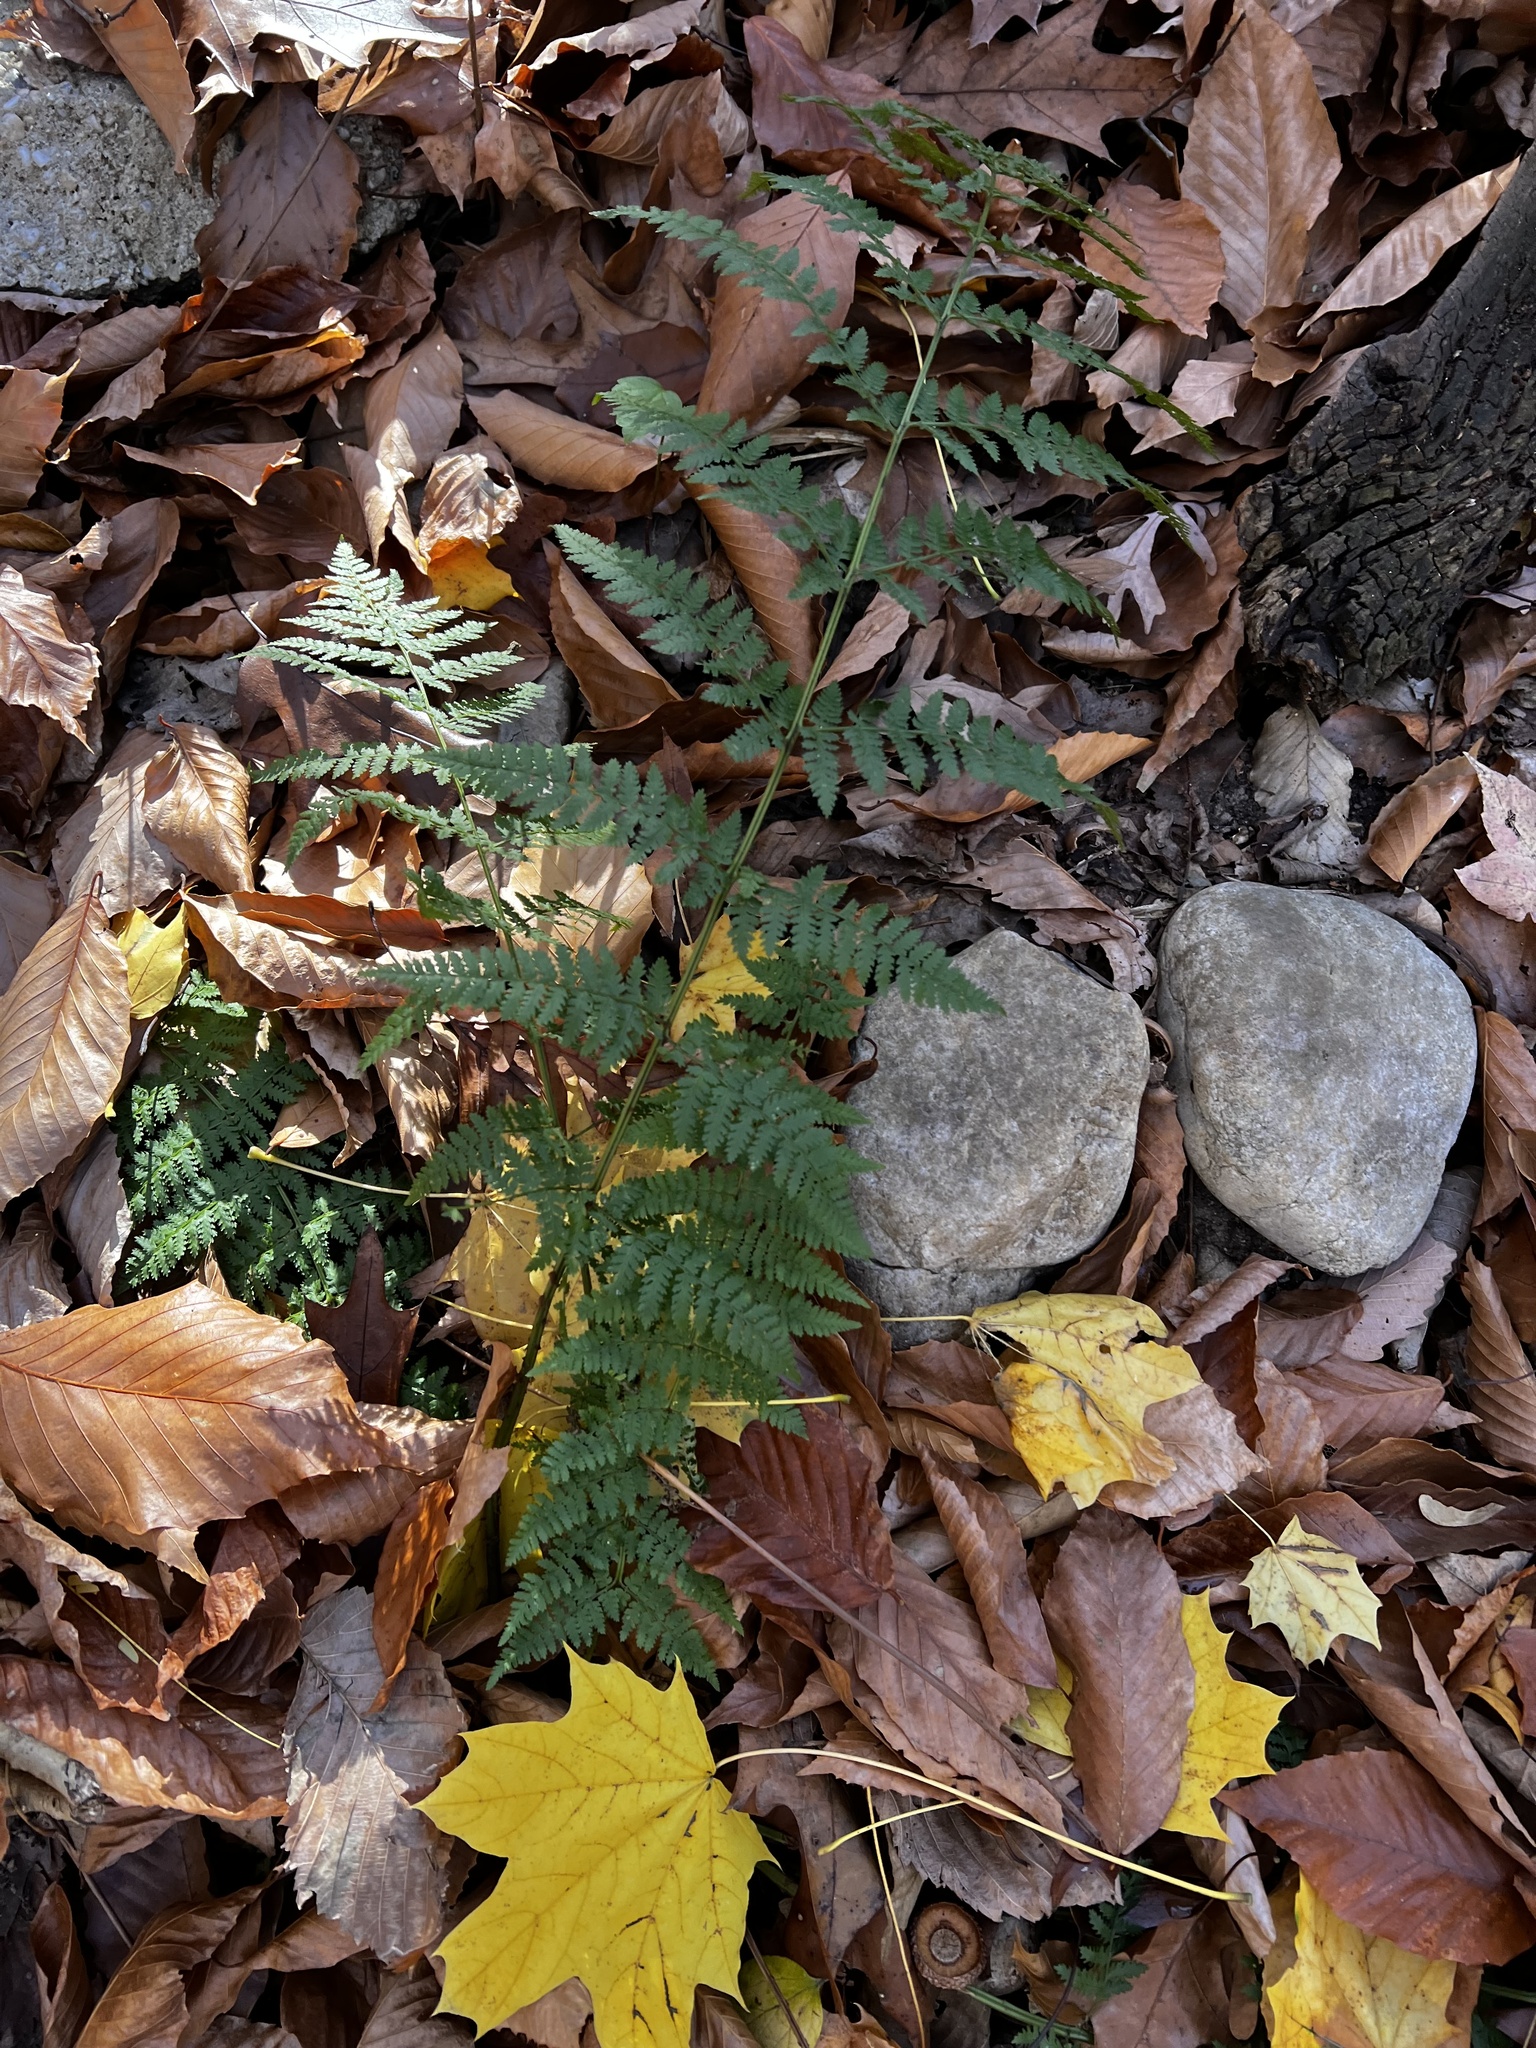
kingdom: Plantae
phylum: Tracheophyta
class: Polypodiopsida
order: Polypodiales
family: Dryopteridaceae
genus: Dryopteris
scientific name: Dryopteris intermedia
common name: Evergreen wood fern
